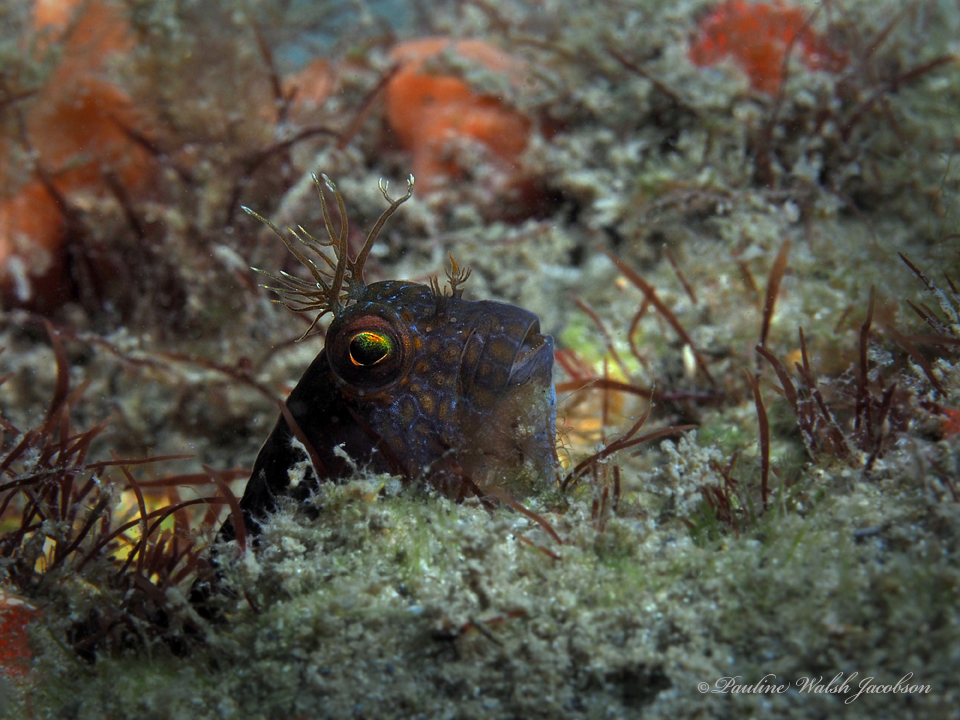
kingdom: Animalia
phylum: Chordata
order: Perciformes
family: Blenniidae
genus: Parablennius
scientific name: Parablennius marmoreus
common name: Seaweed blenny
